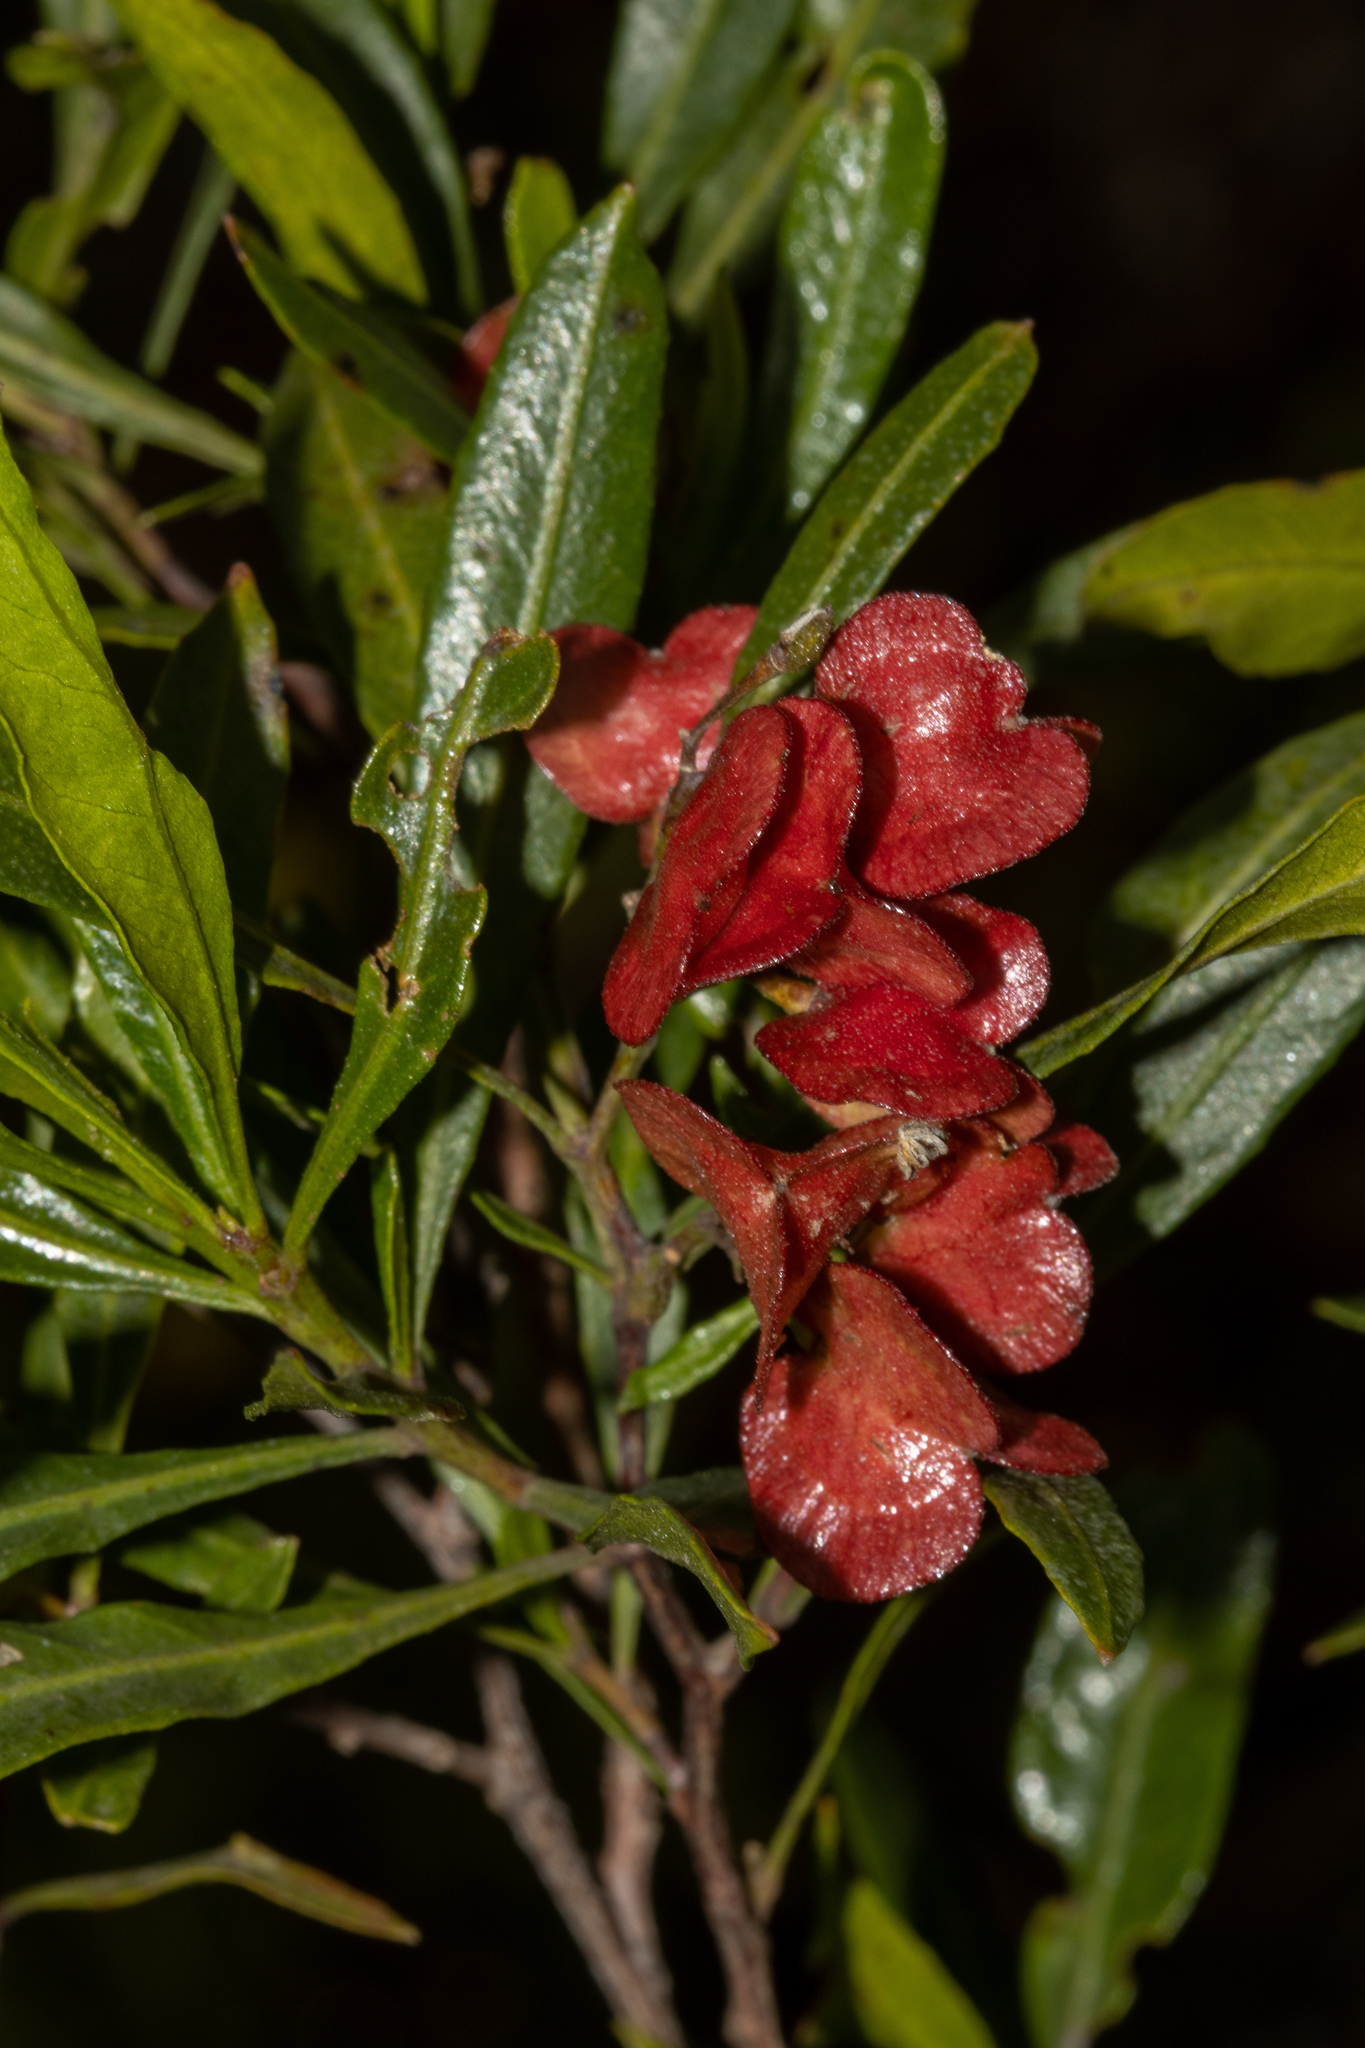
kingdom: Plantae
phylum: Tracheophyta
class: Magnoliopsida
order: Sapindales
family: Sapindaceae
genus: Dodonaea
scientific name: Dodonaea viscosa
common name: Hopbush
